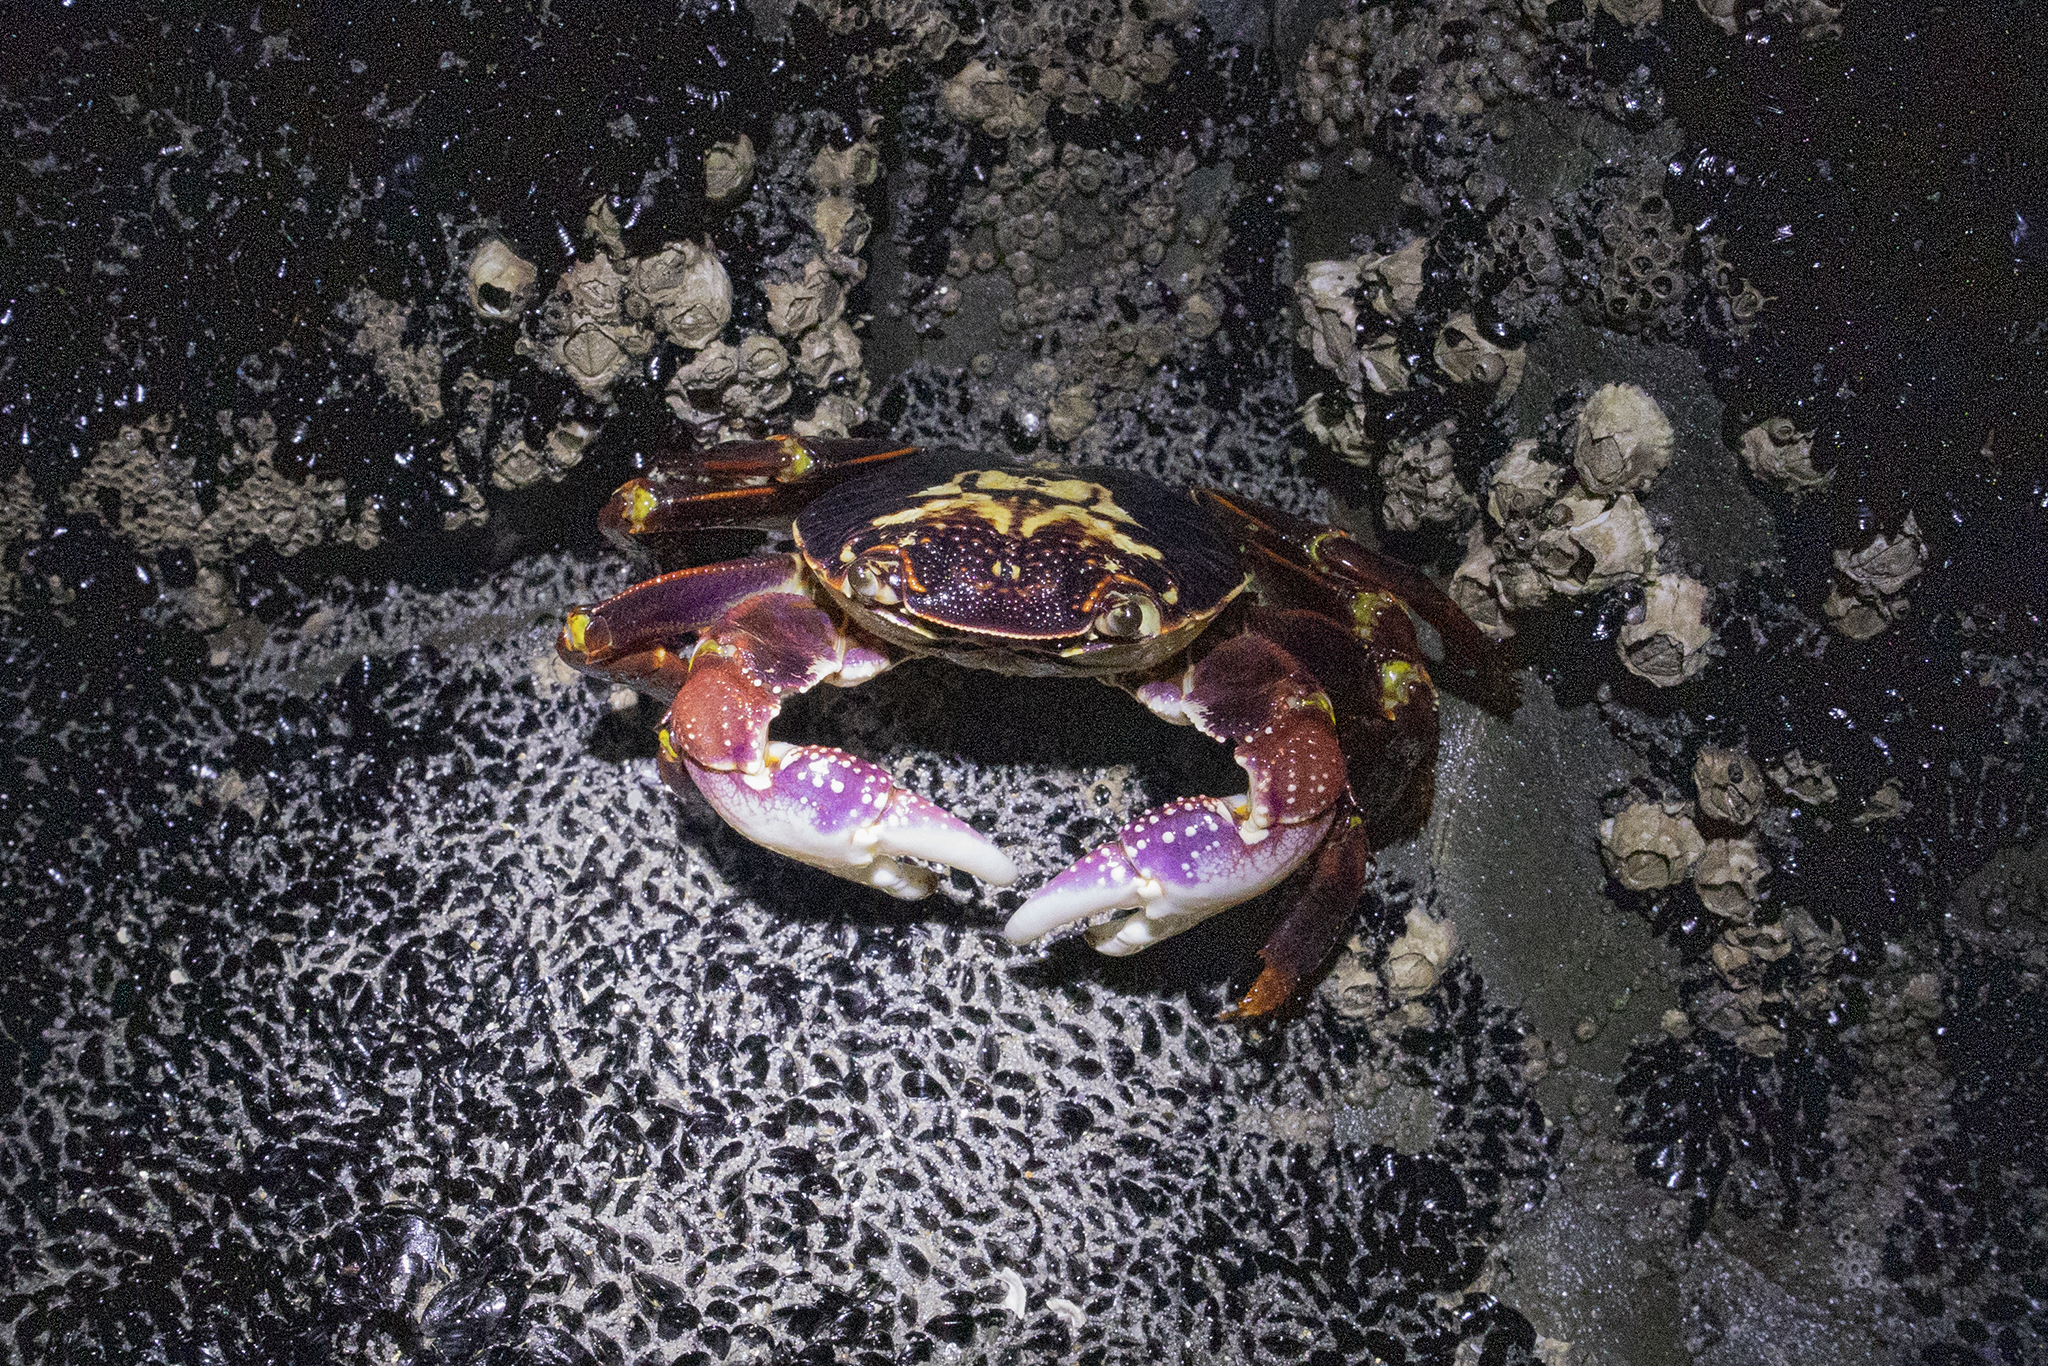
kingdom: Animalia
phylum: Arthropoda
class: Malacostraca
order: Decapoda
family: Grapsidae
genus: Leptograpsus
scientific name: Leptograpsus variegatus
